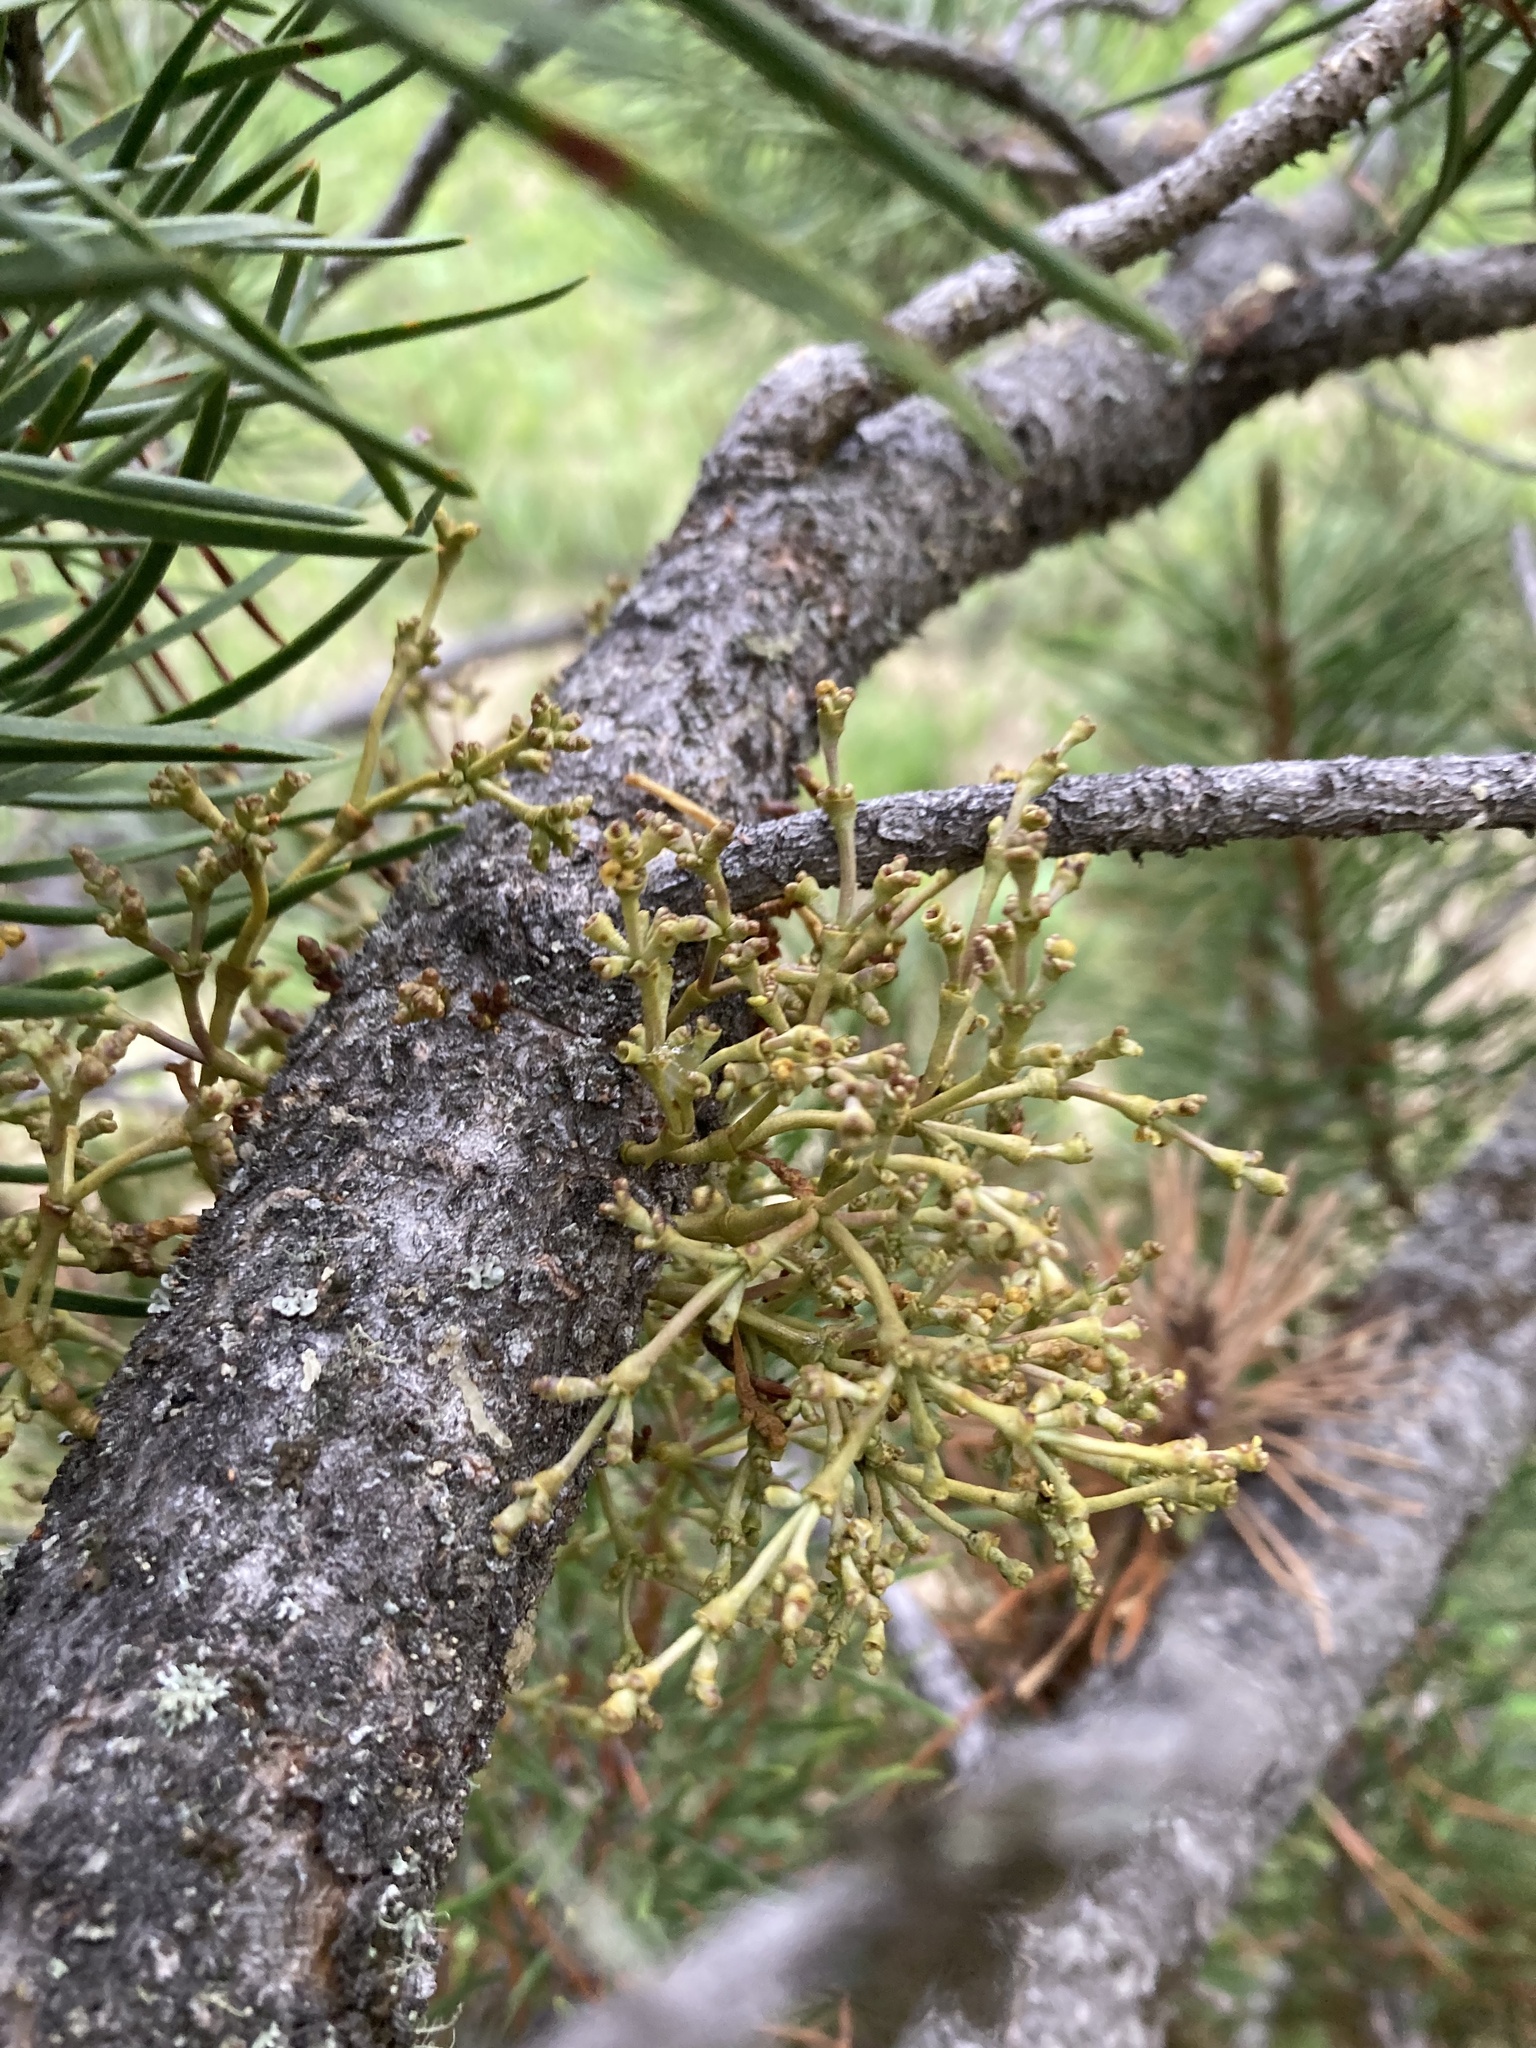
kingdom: Plantae
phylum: Tracheophyta
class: Magnoliopsida
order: Santalales
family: Viscaceae
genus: Arceuthobium
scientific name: Arceuthobium americanum
